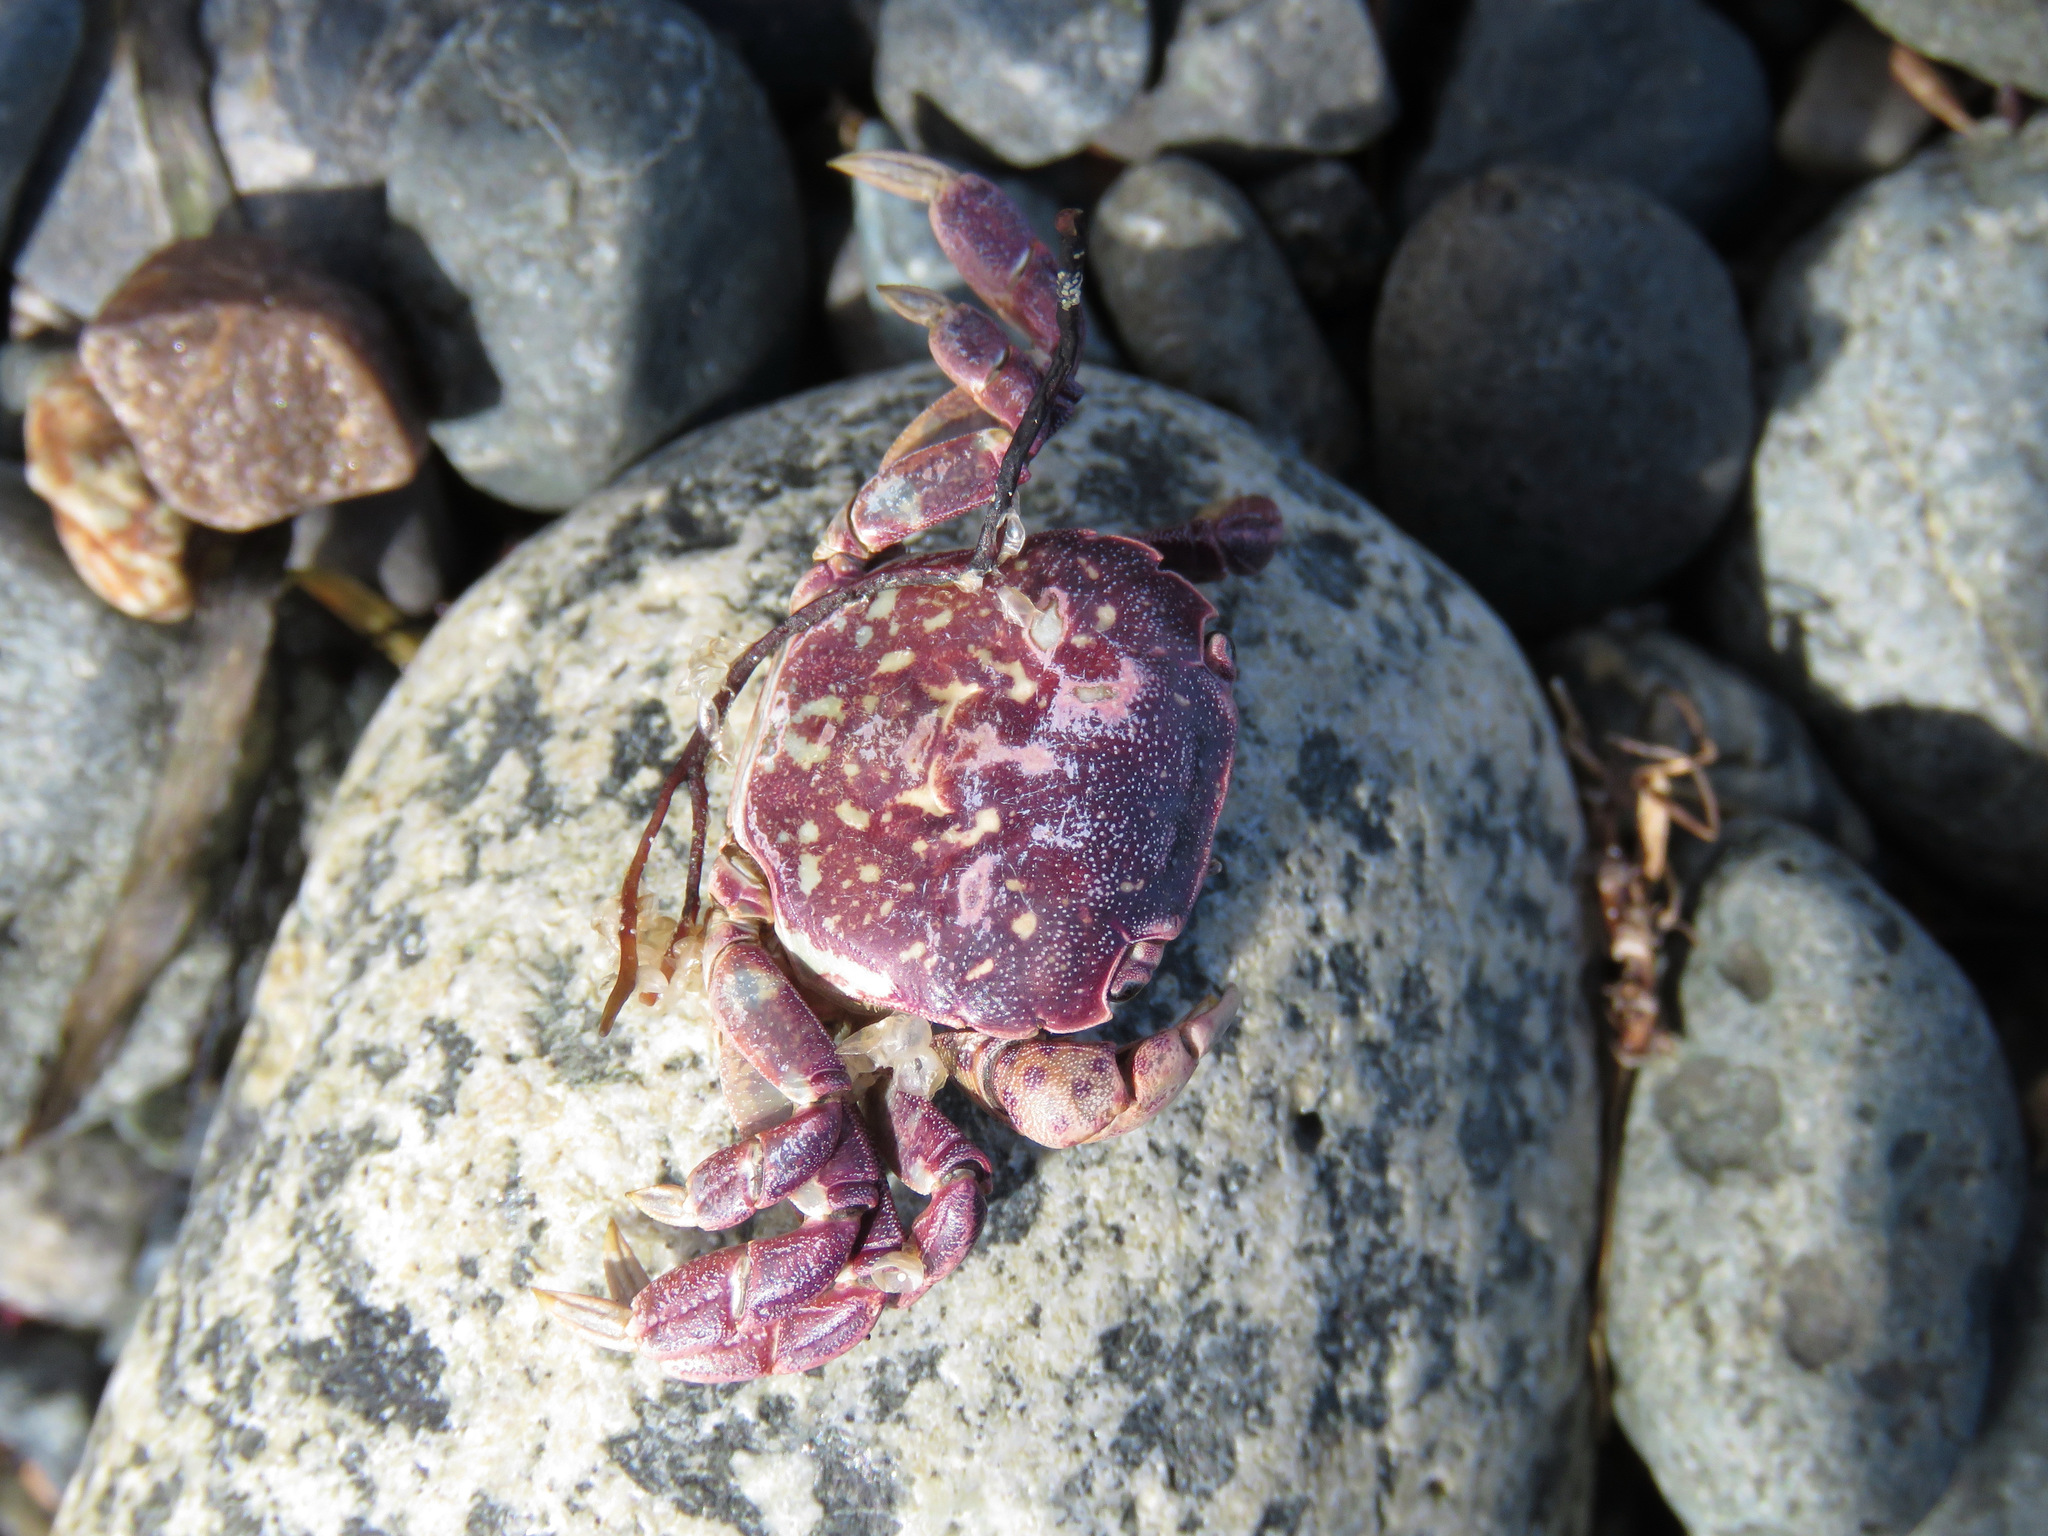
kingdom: Animalia
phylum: Arthropoda
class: Malacostraca
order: Decapoda
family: Varunidae
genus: Hemigrapsus
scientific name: Hemigrapsus nudus
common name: Purple shore crab
